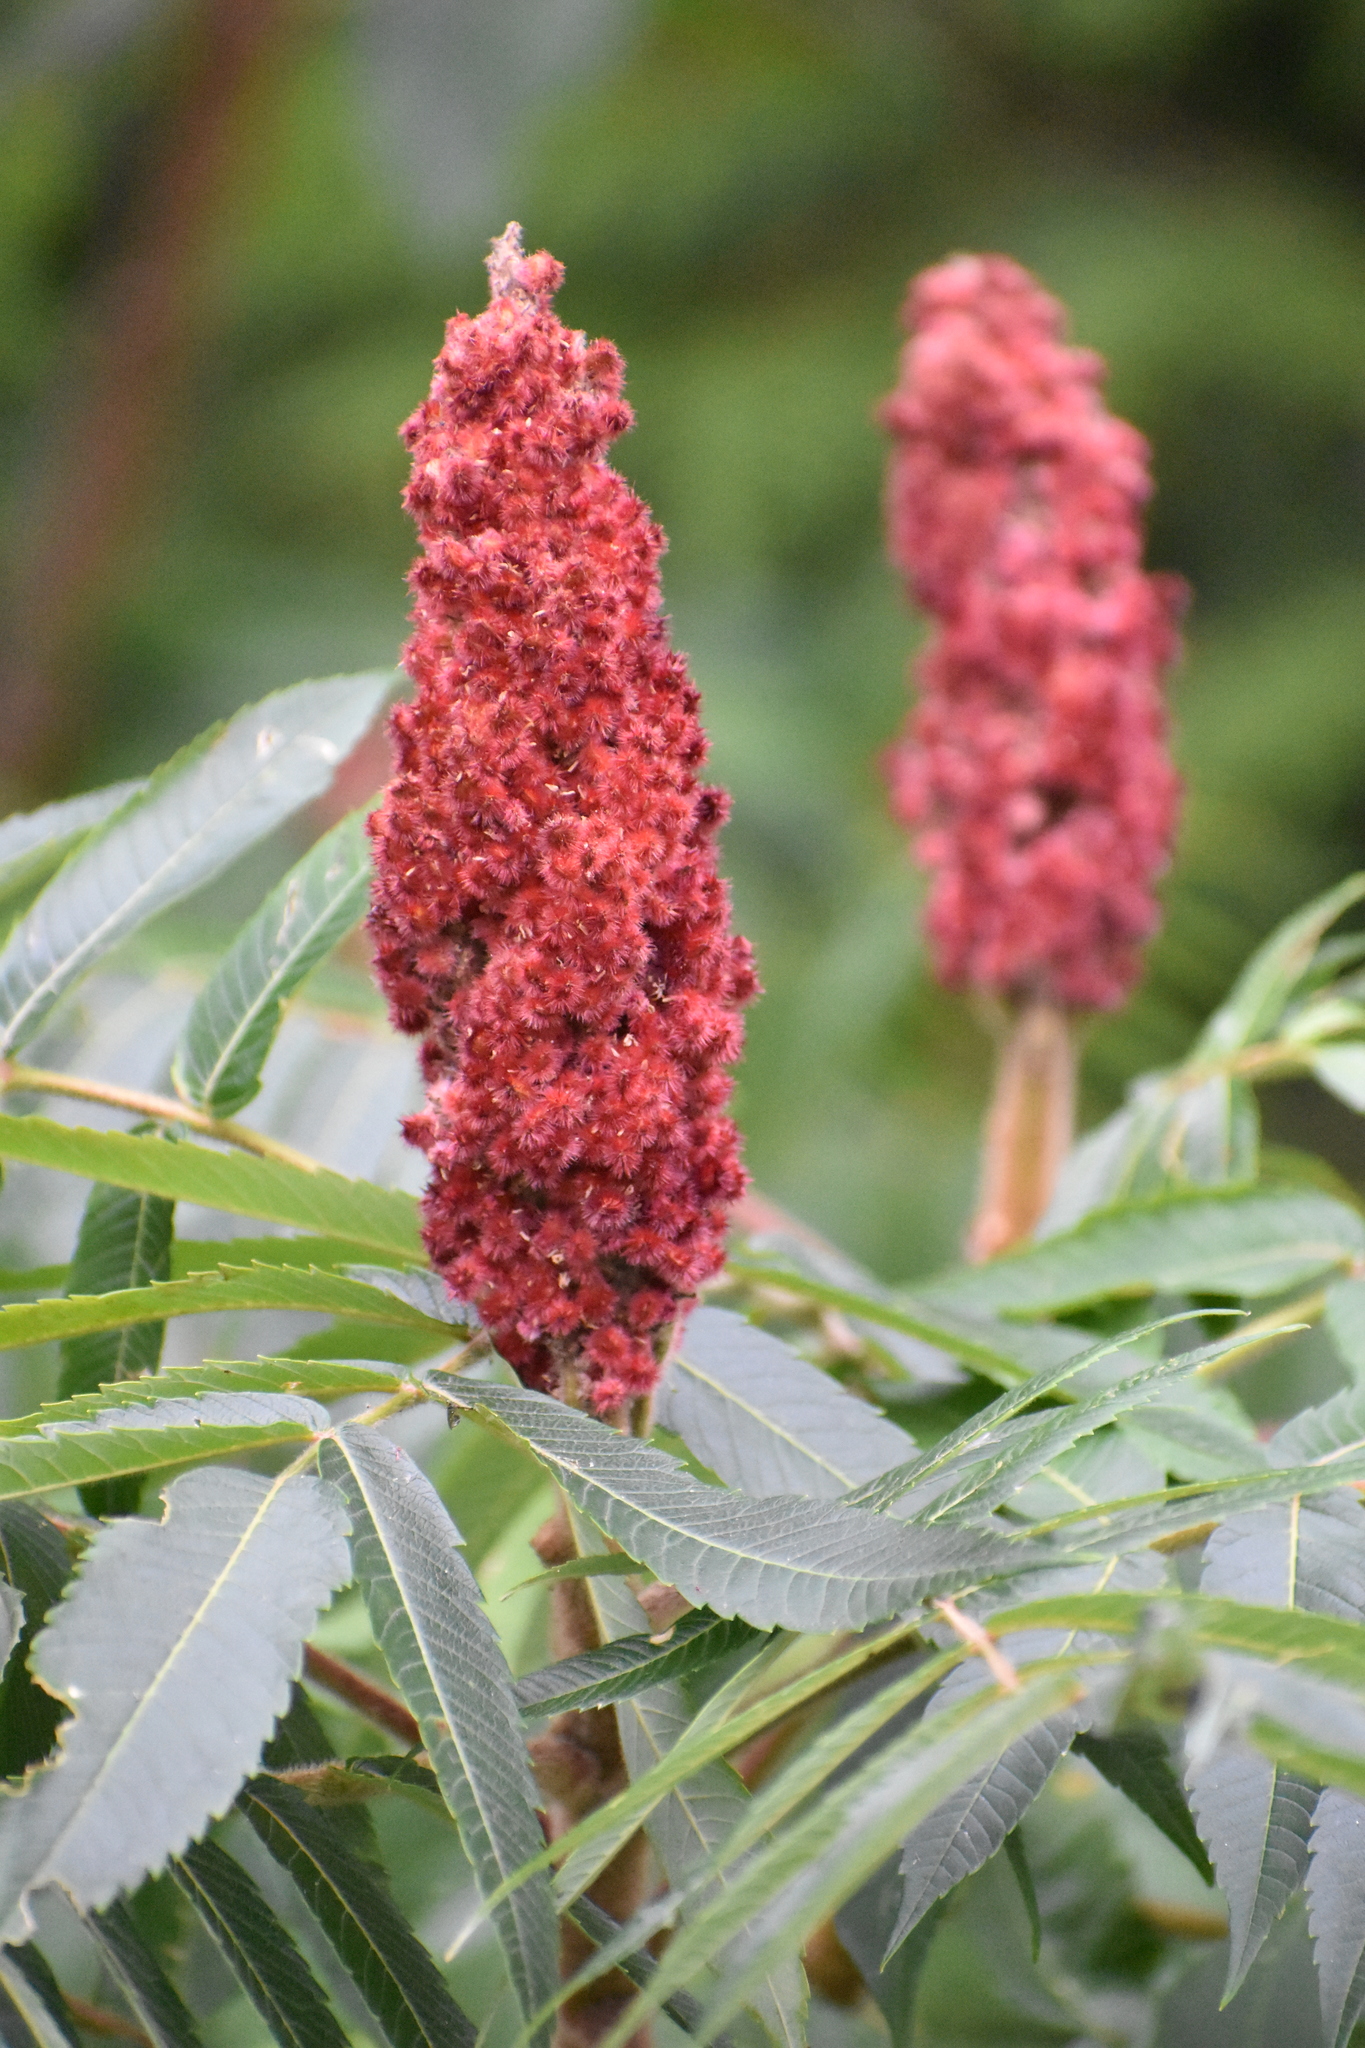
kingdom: Plantae
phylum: Tracheophyta
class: Magnoliopsida
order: Sapindales
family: Anacardiaceae
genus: Rhus
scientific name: Rhus typhina
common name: Staghorn sumac
